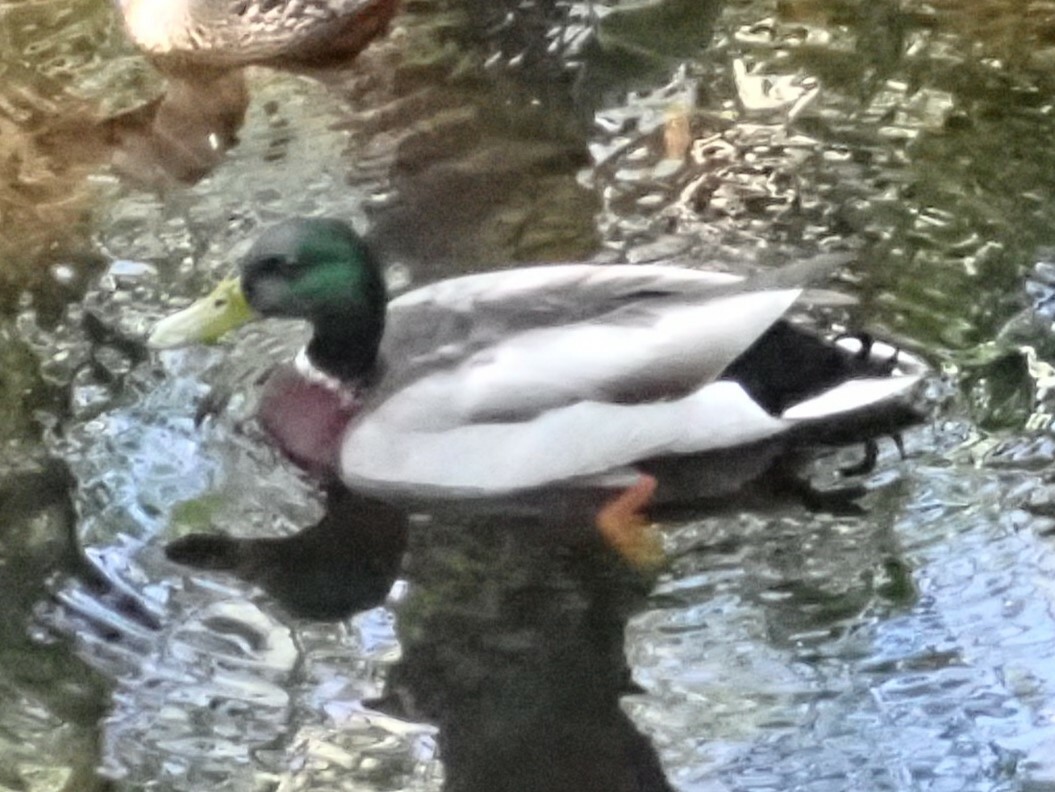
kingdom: Animalia
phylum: Chordata
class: Aves
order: Anseriformes
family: Anatidae
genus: Anas
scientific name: Anas platyrhynchos
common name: Mallard
